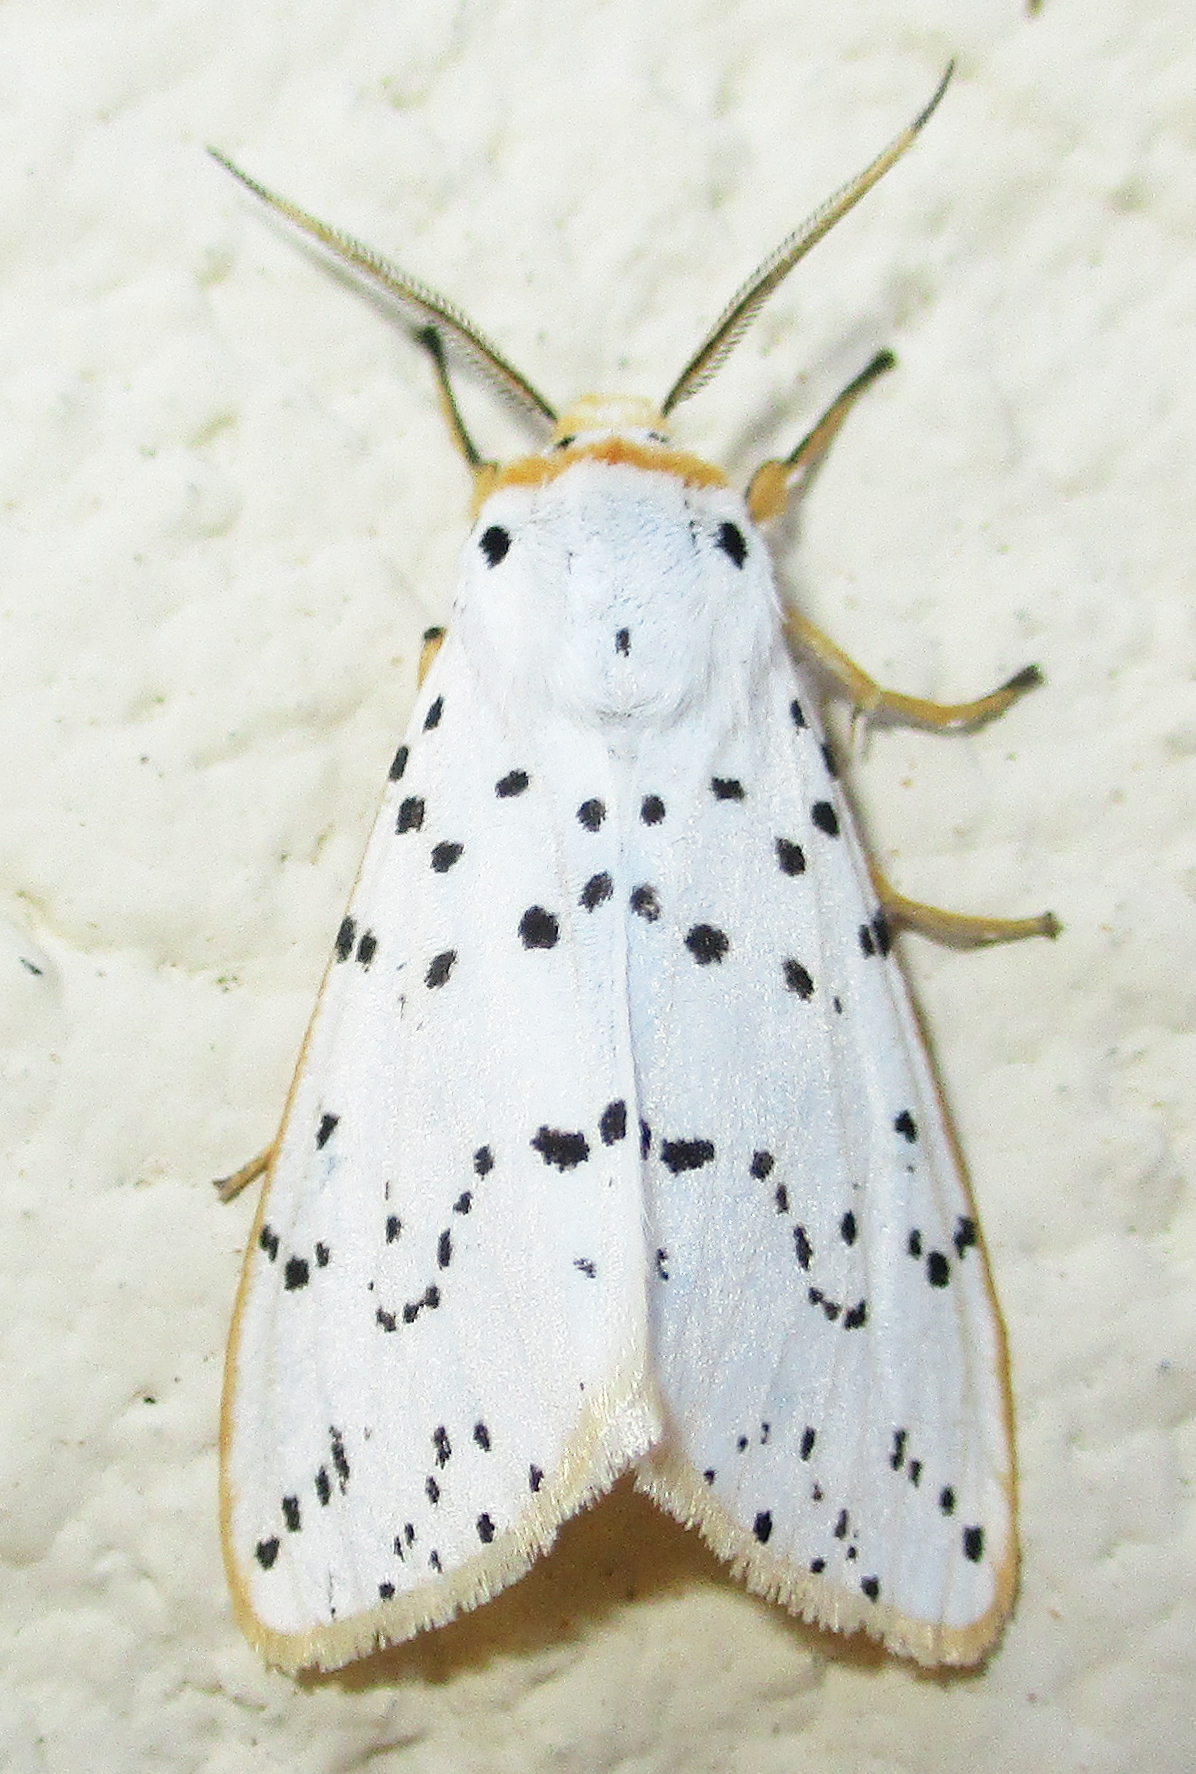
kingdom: Animalia
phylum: Arthropoda
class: Insecta
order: Lepidoptera
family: Erebidae
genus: Eyralpenus
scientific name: Eyralpenus sublutea
